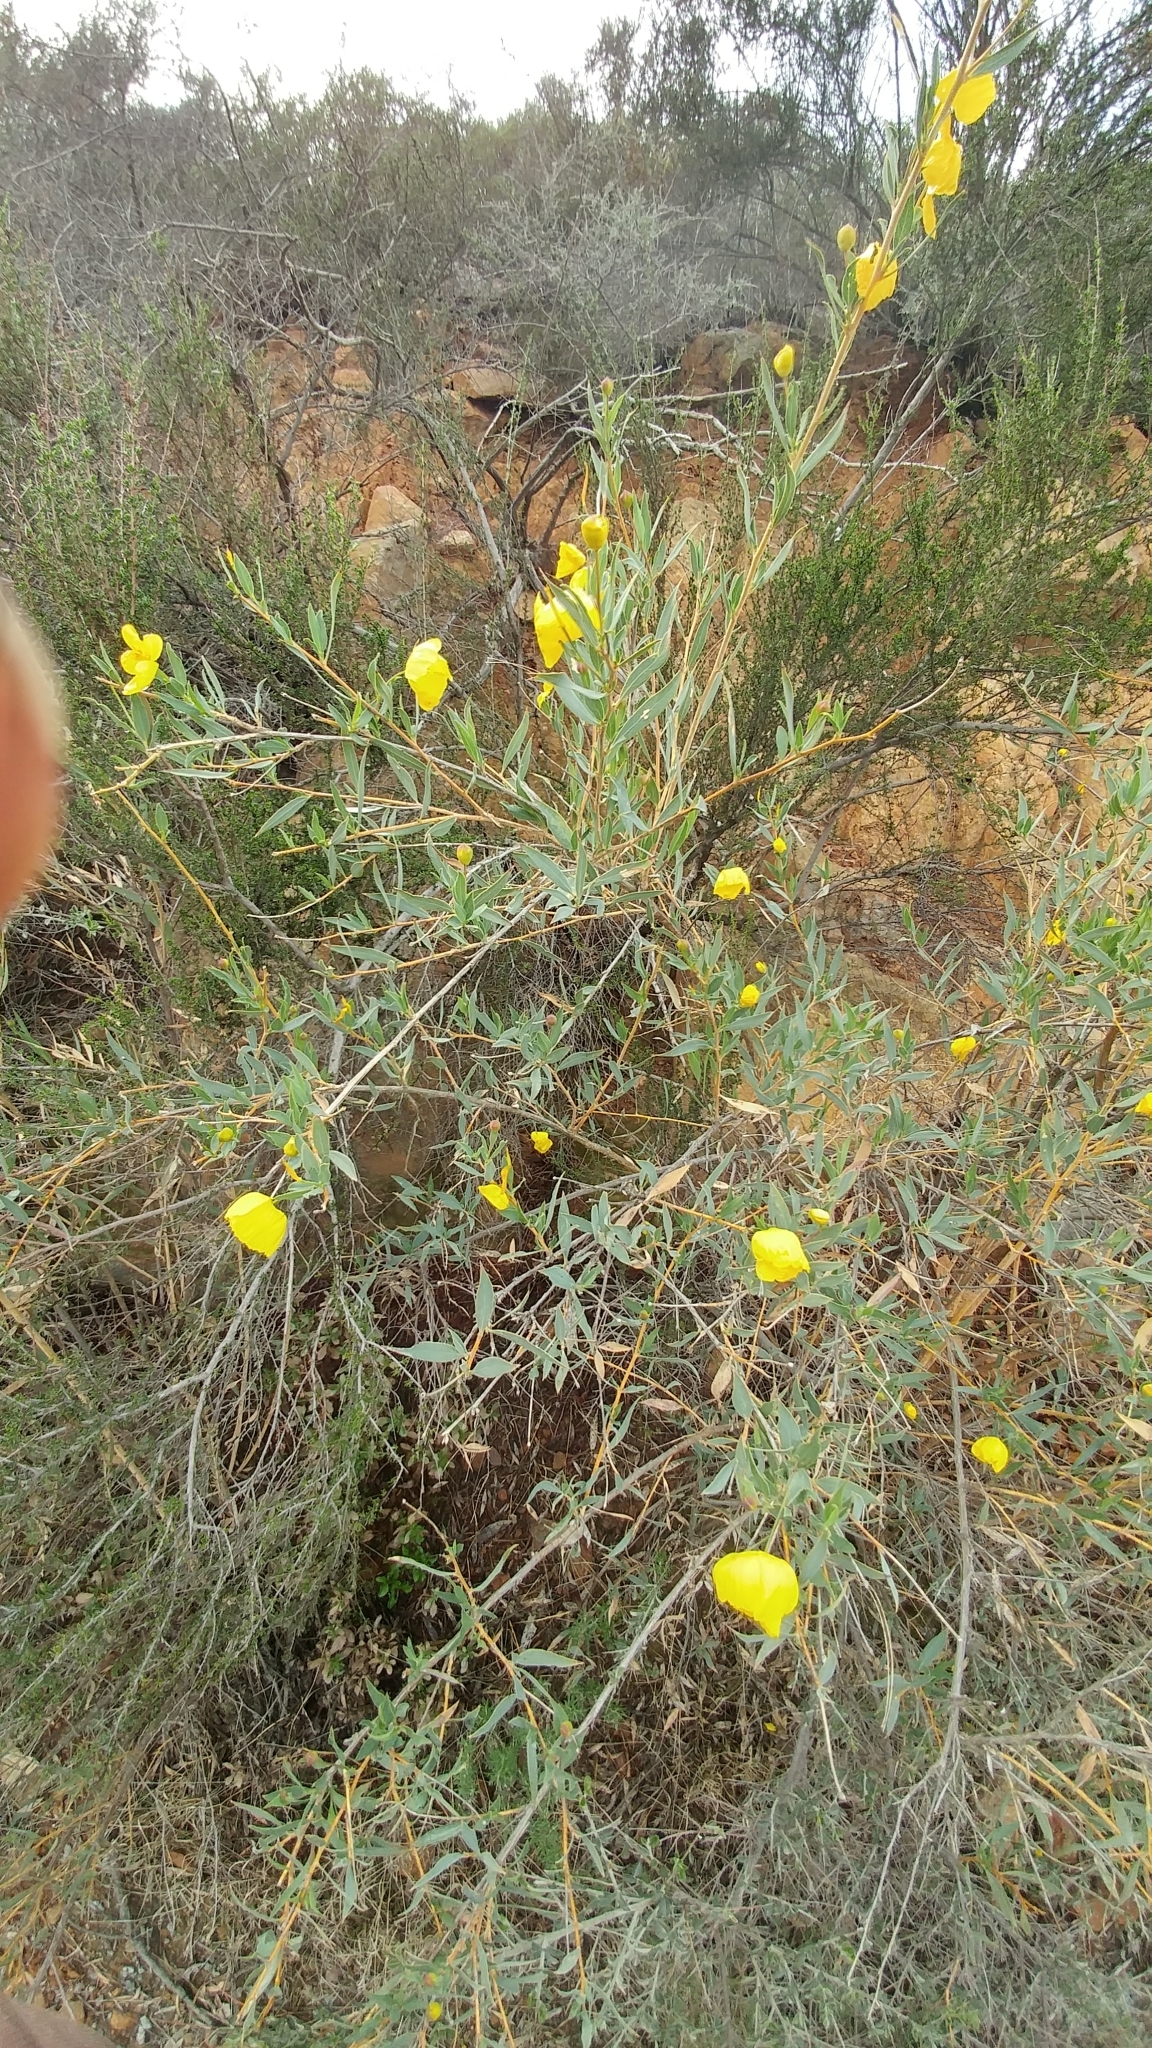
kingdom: Plantae
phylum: Tracheophyta
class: Magnoliopsida
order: Ranunculales
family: Papaveraceae
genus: Dendromecon
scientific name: Dendromecon rigida
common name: Tree poppy
